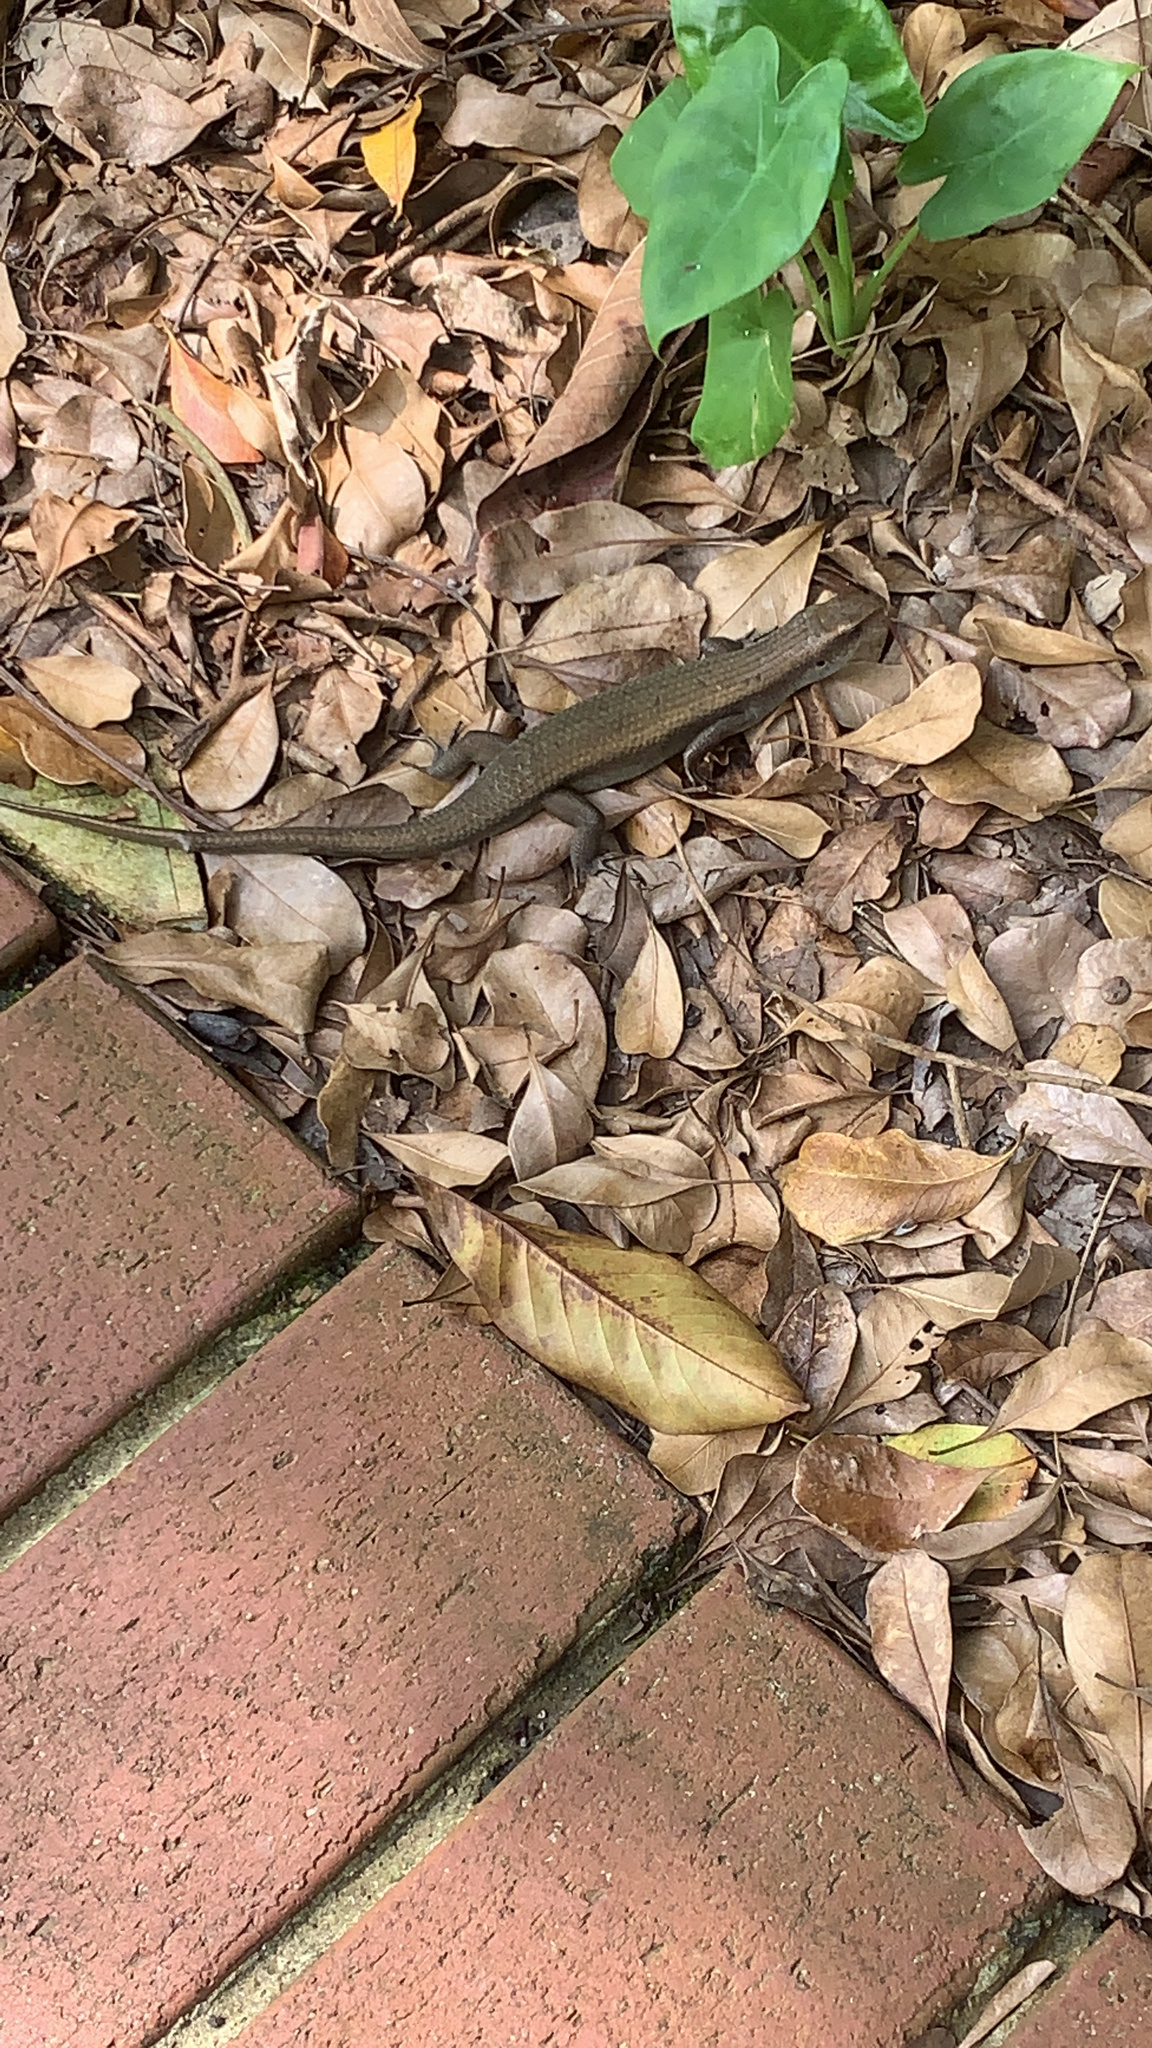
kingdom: Animalia
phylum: Chordata
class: Squamata
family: Scincidae
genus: Eutropis
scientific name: Eutropis multifasciata
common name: Common mabuya
